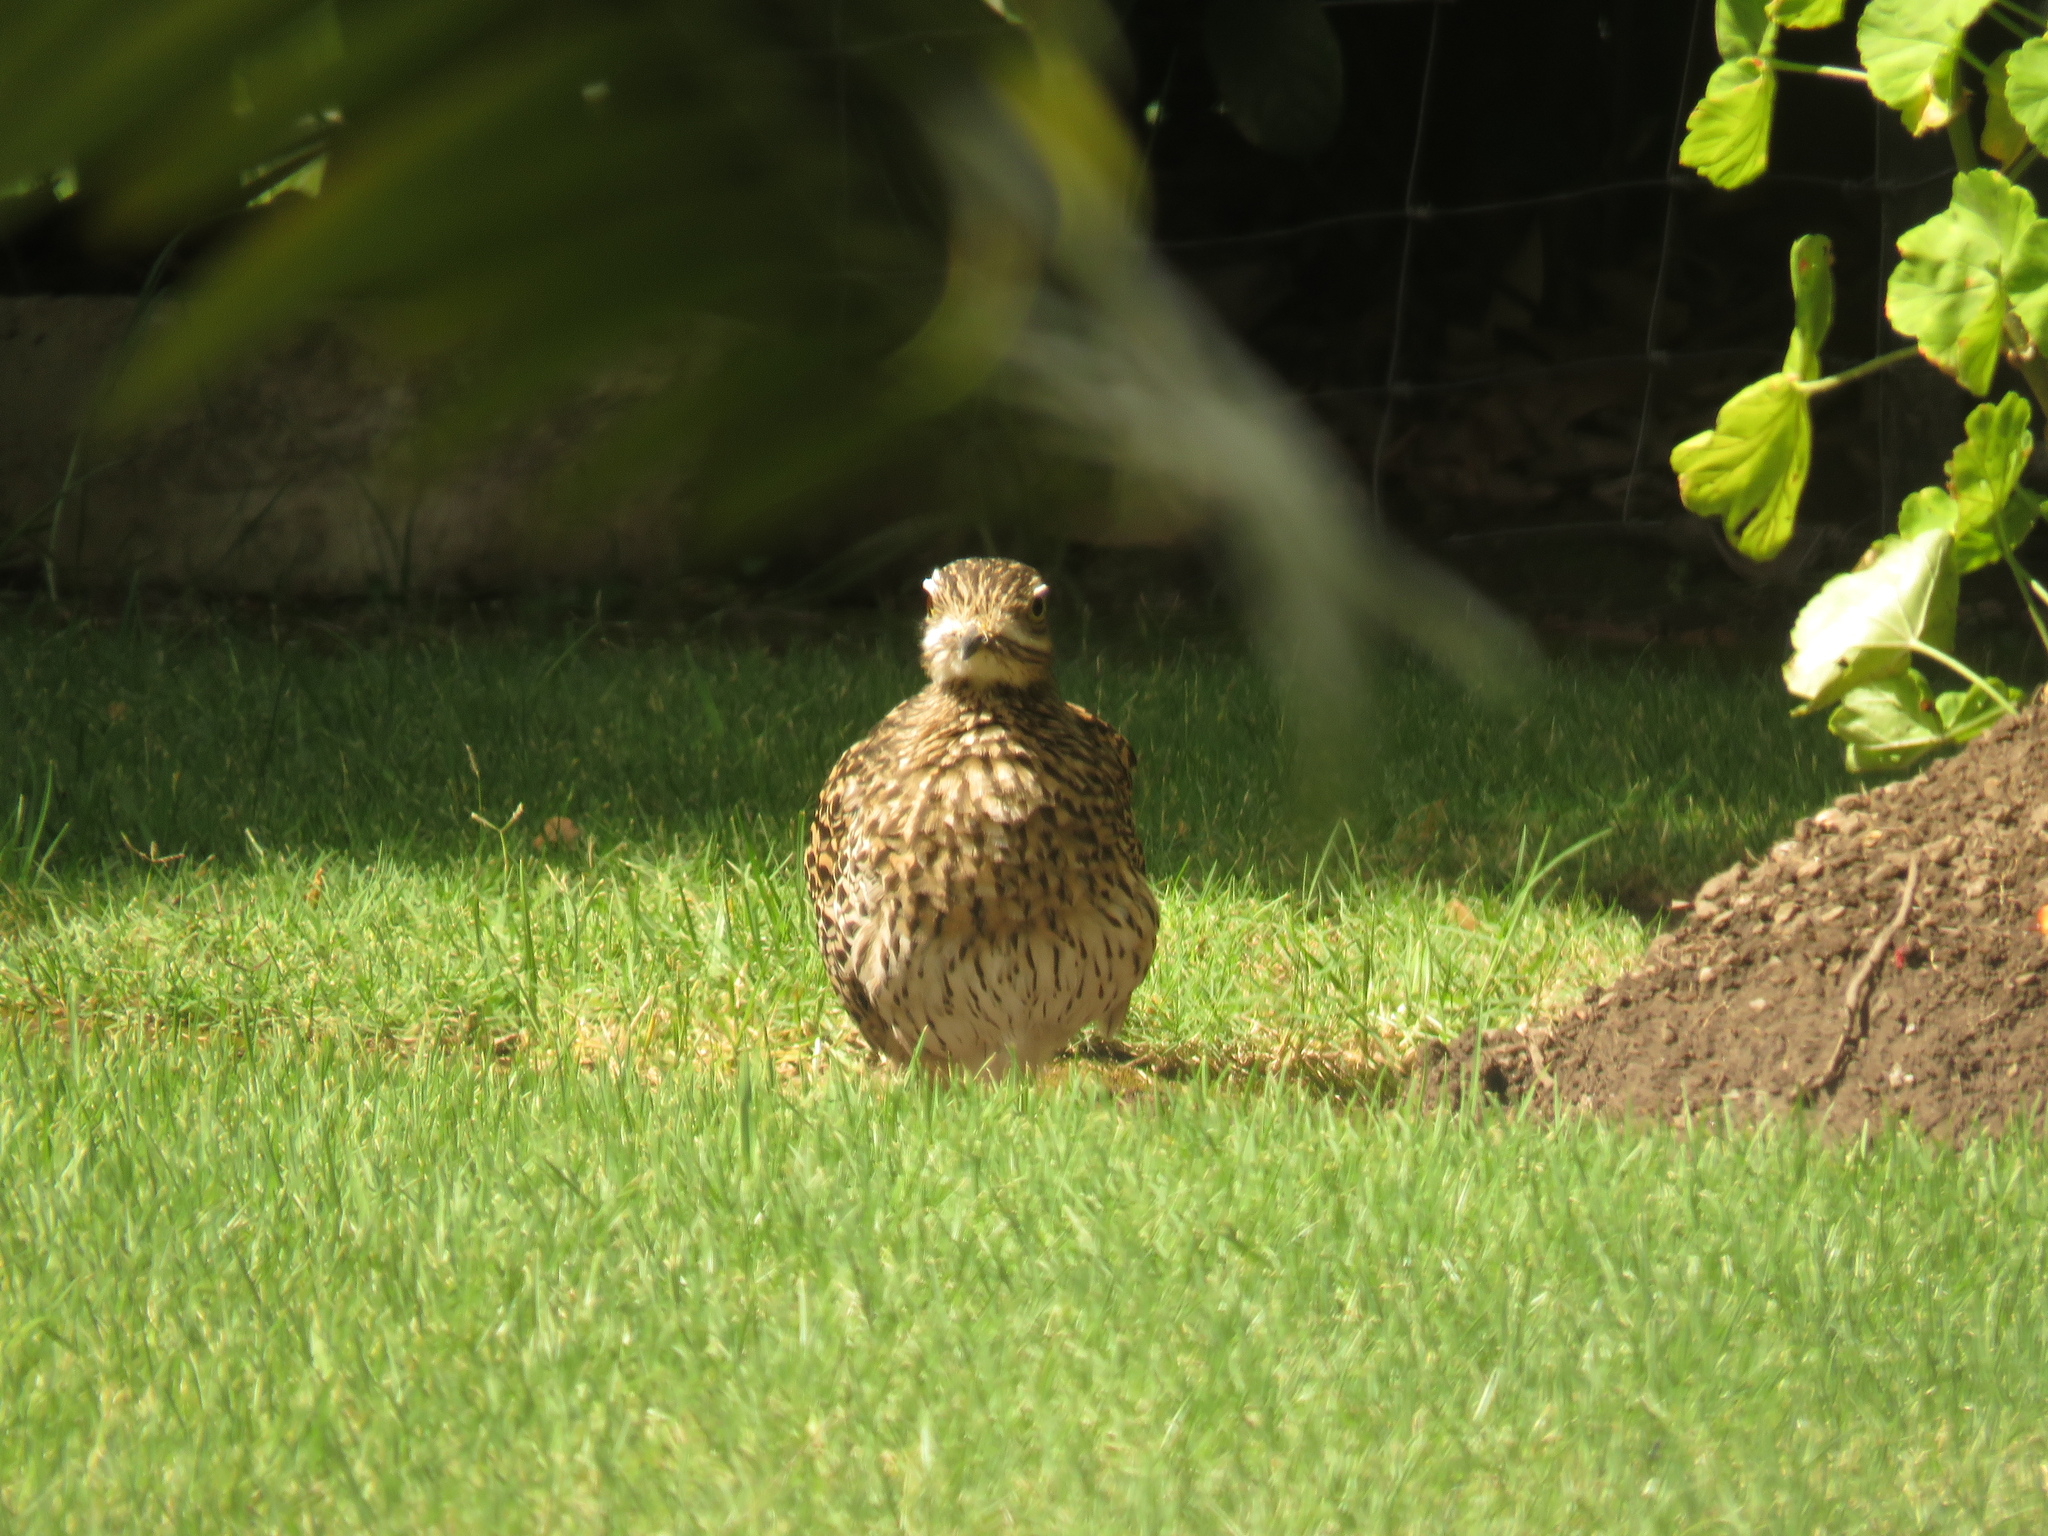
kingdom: Animalia
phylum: Chordata
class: Aves
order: Charadriiformes
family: Burhinidae
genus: Burhinus
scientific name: Burhinus capensis
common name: Spotted thick-knee
